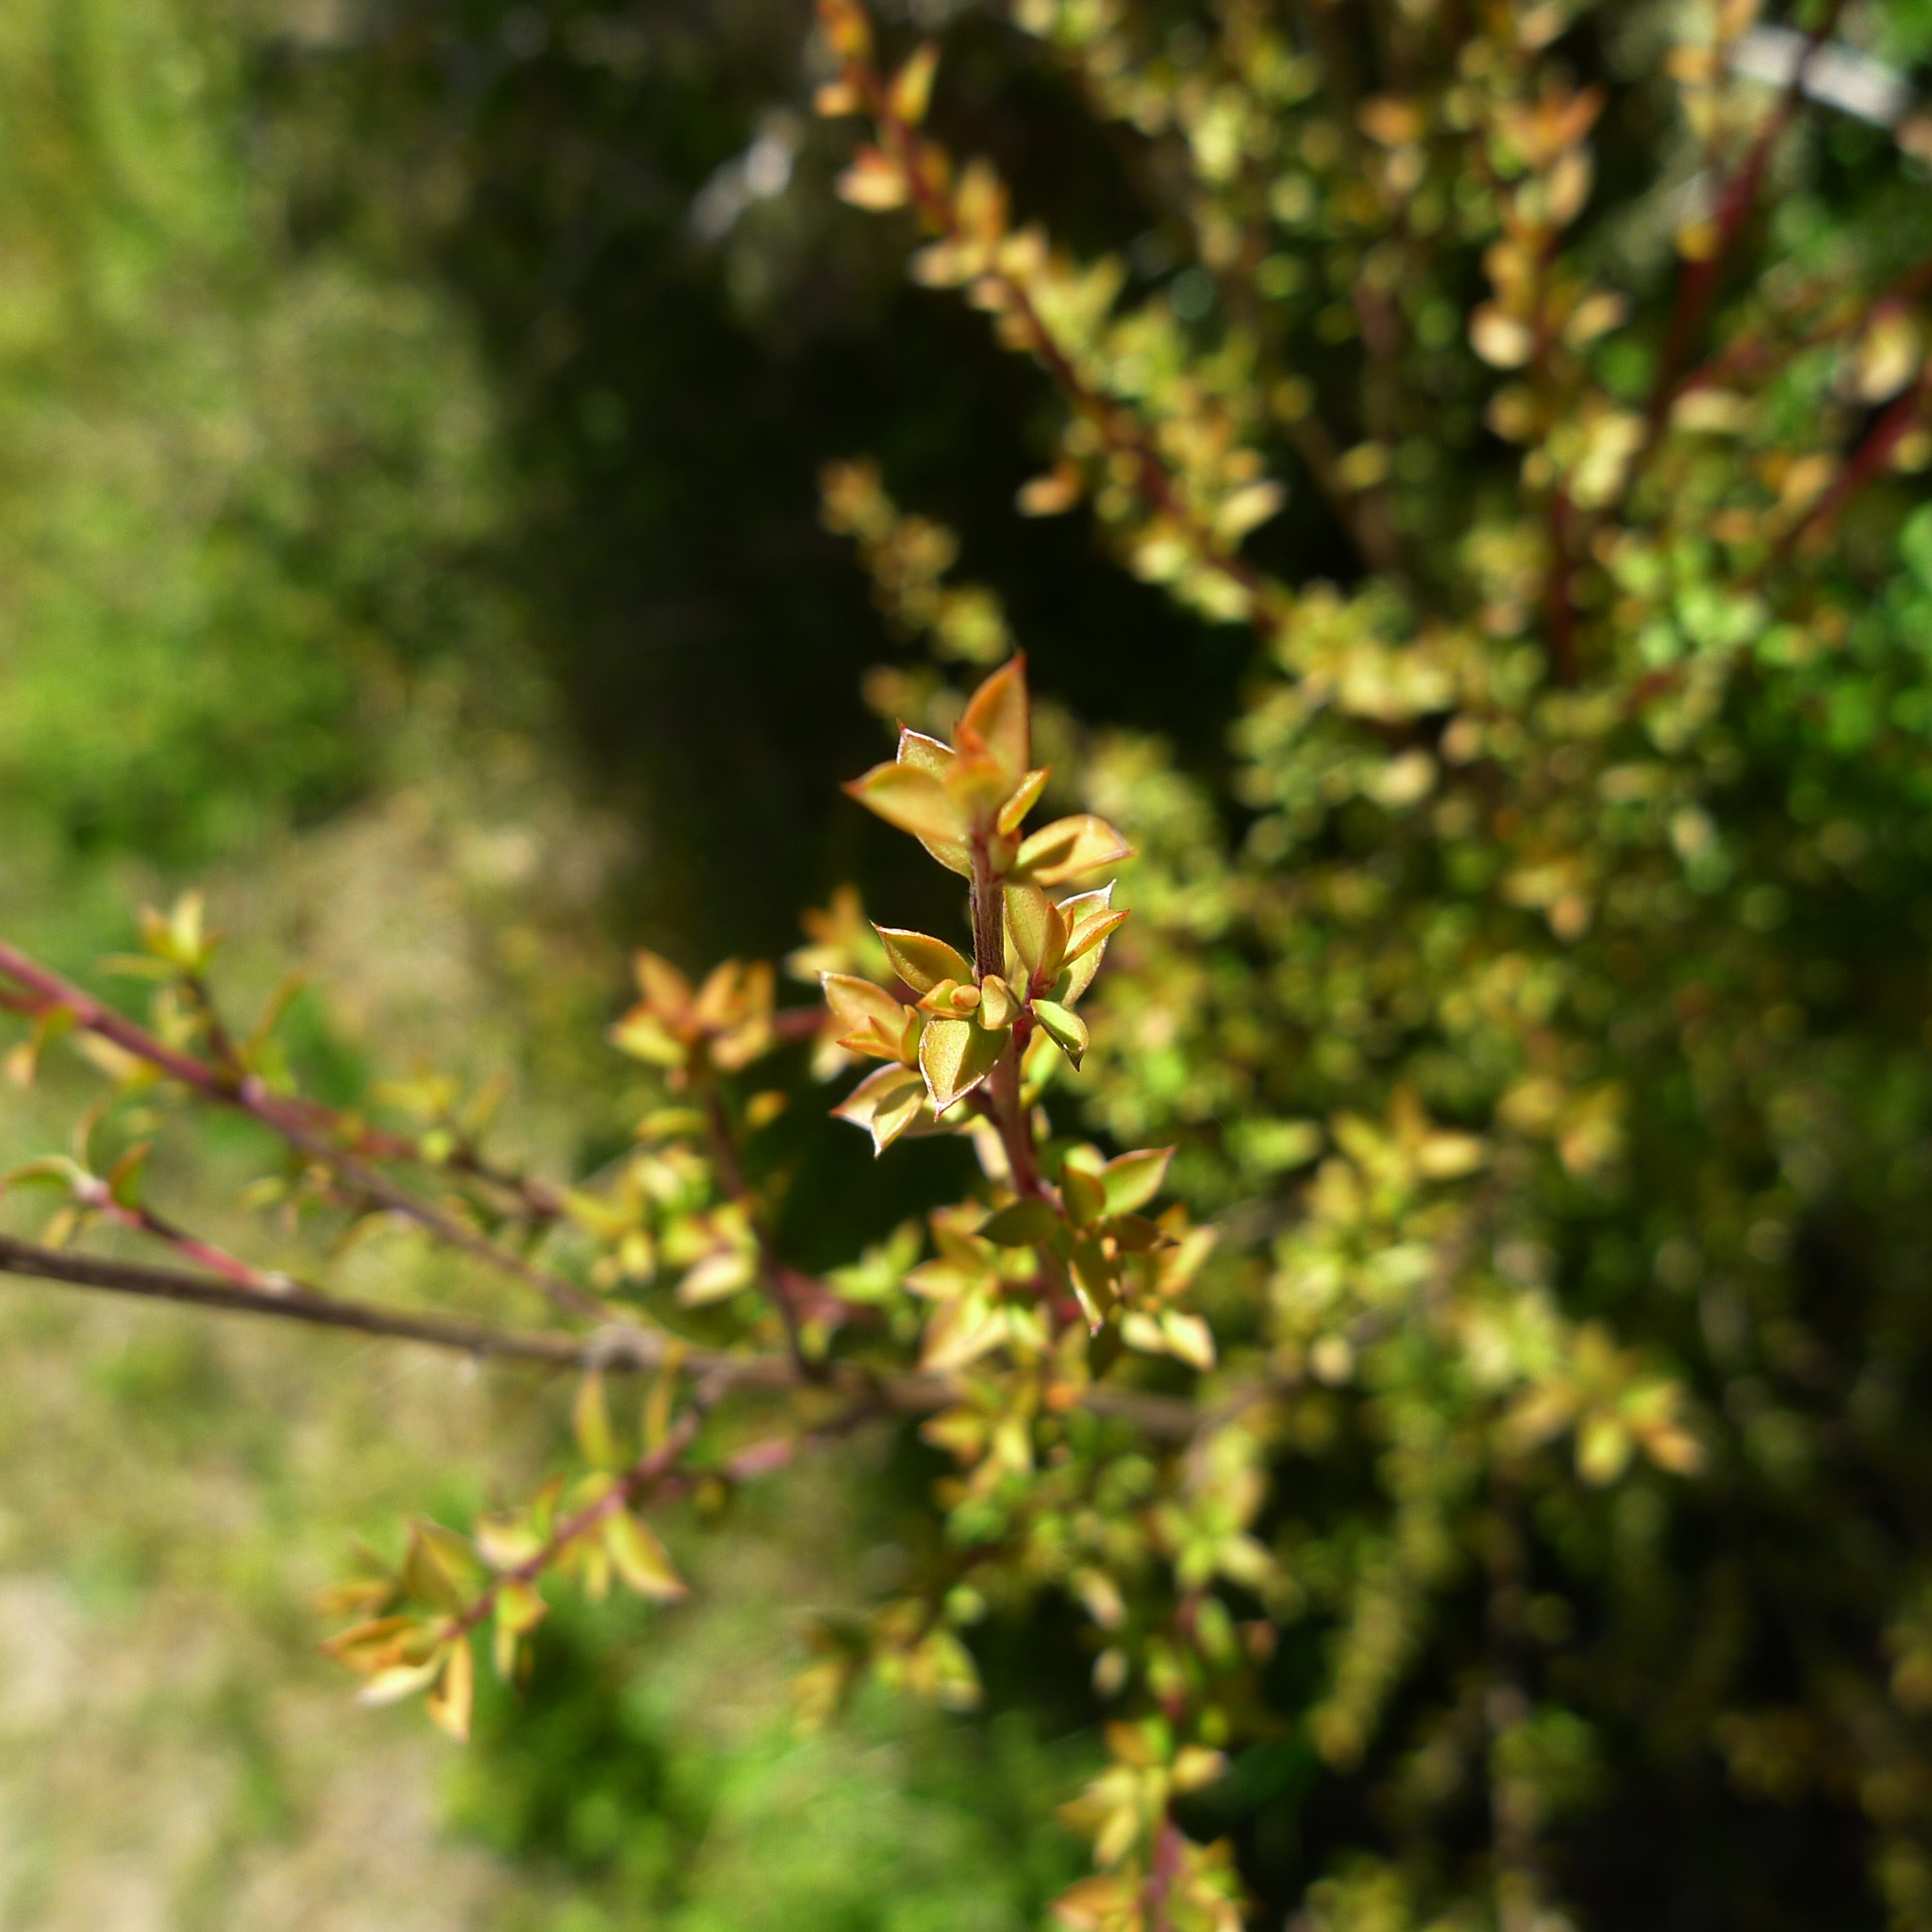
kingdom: Plantae
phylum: Tracheophyta
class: Magnoliopsida
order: Myrtales
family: Myrtaceae
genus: Leptospermum
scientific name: Leptospermum scoparium
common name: Broom tea-tree
